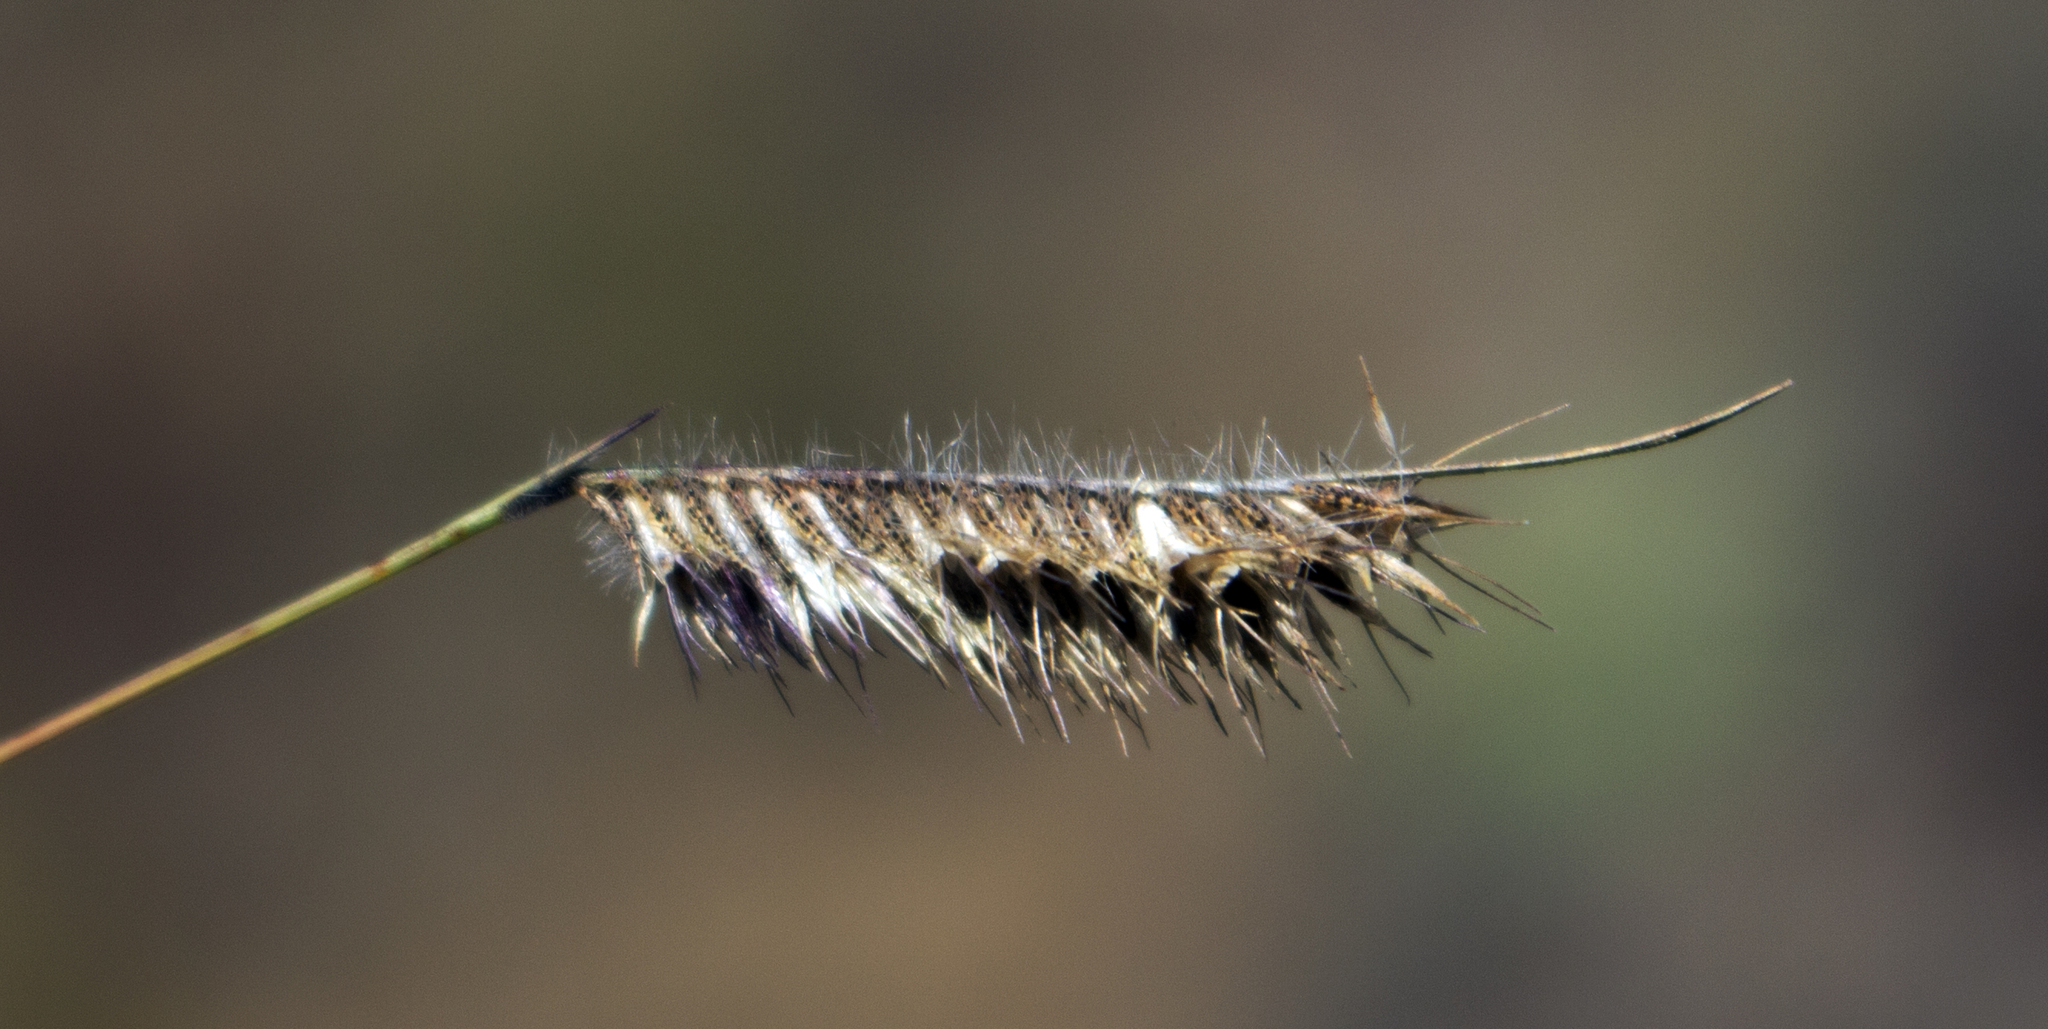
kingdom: Plantae
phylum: Tracheophyta
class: Liliopsida
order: Poales
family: Poaceae
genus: Bouteloua
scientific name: Bouteloua hirsuta
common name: Hairy grama
